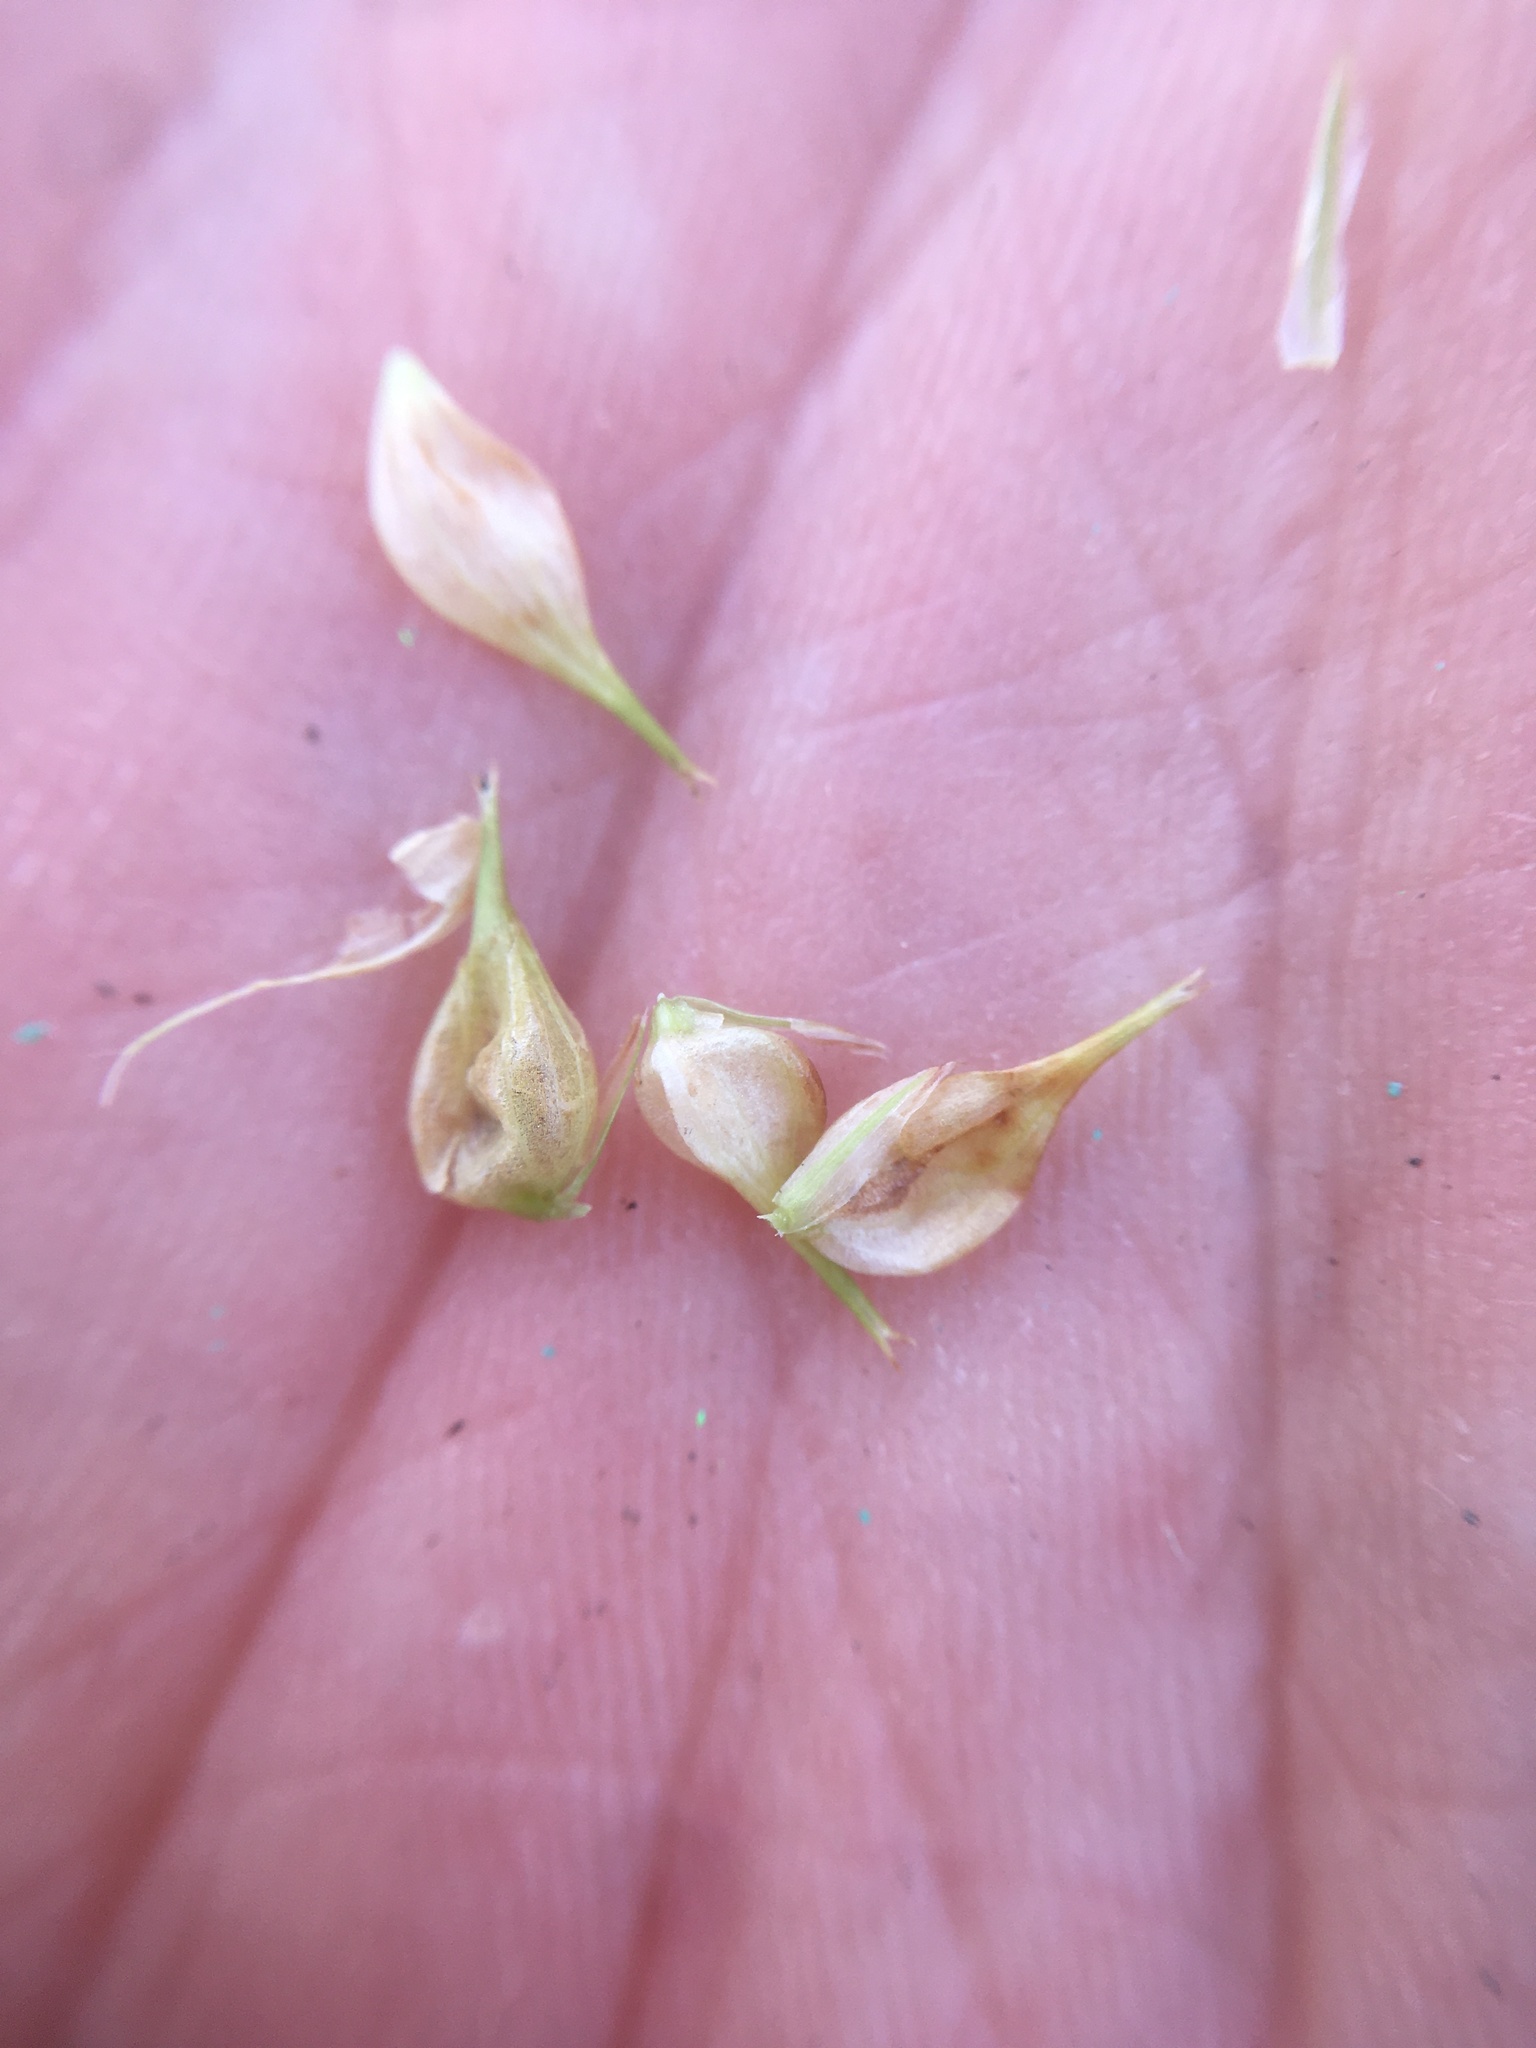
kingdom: Plantae
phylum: Tracheophyta
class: Liliopsida
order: Poales
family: Cyperaceae
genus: Carex
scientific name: Carex retrorsa
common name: Knot-sheath sedge
